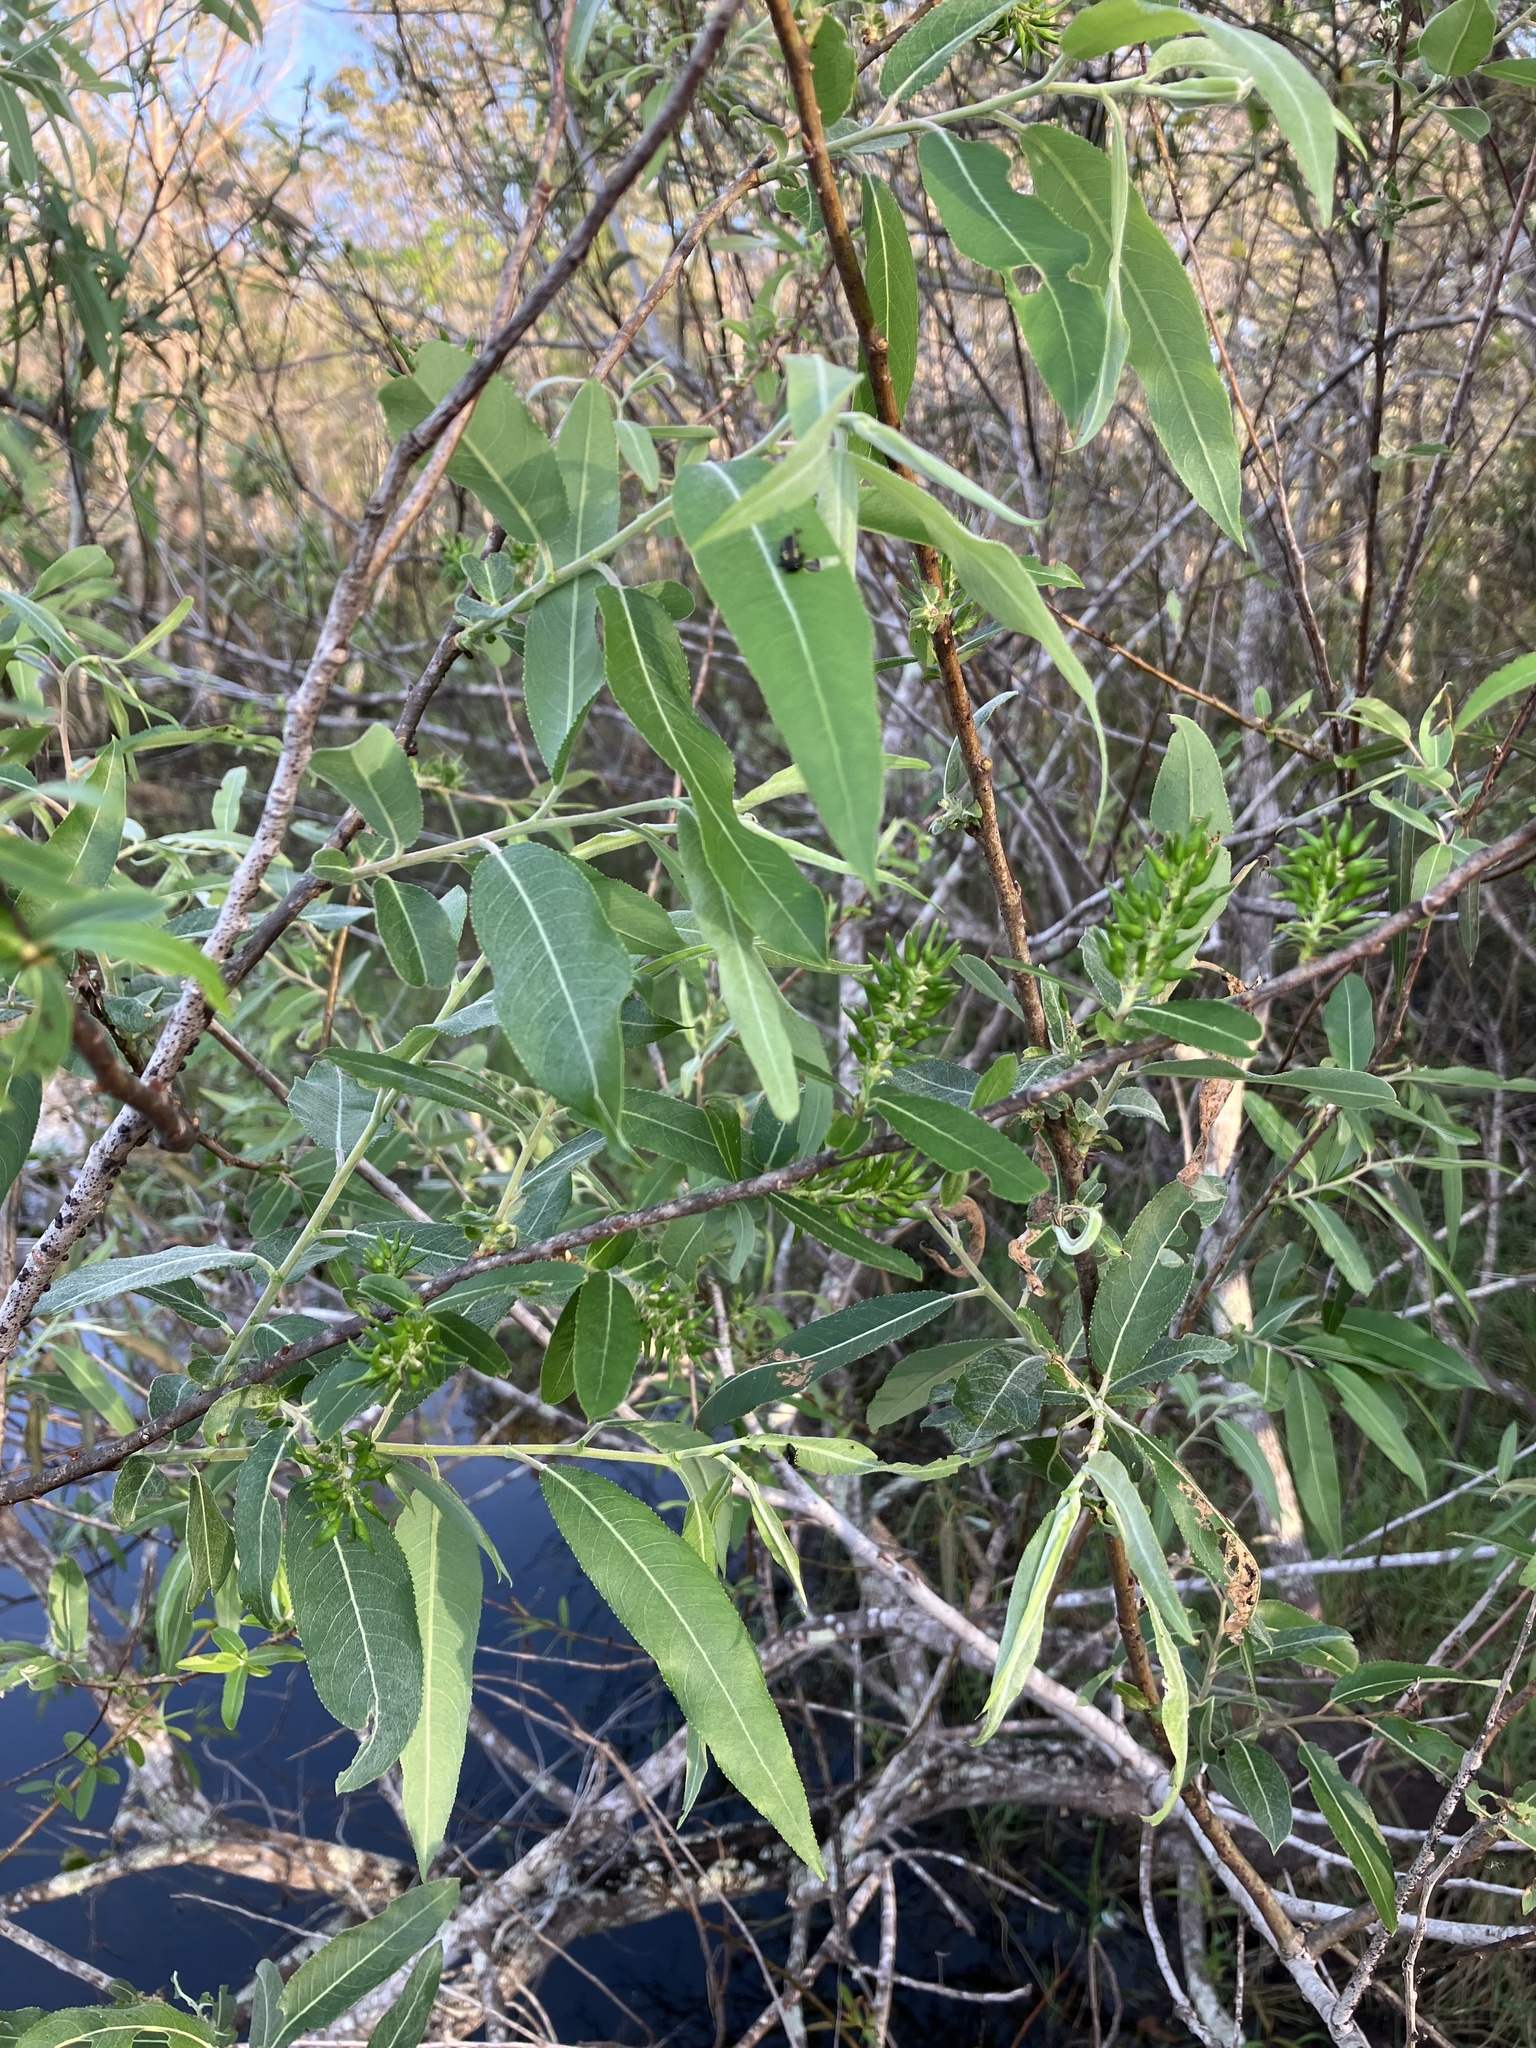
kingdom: Plantae
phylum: Tracheophyta
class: Magnoliopsida
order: Malpighiales
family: Salicaceae
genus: Salix
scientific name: Salix caroliniana
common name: Carolina willow
